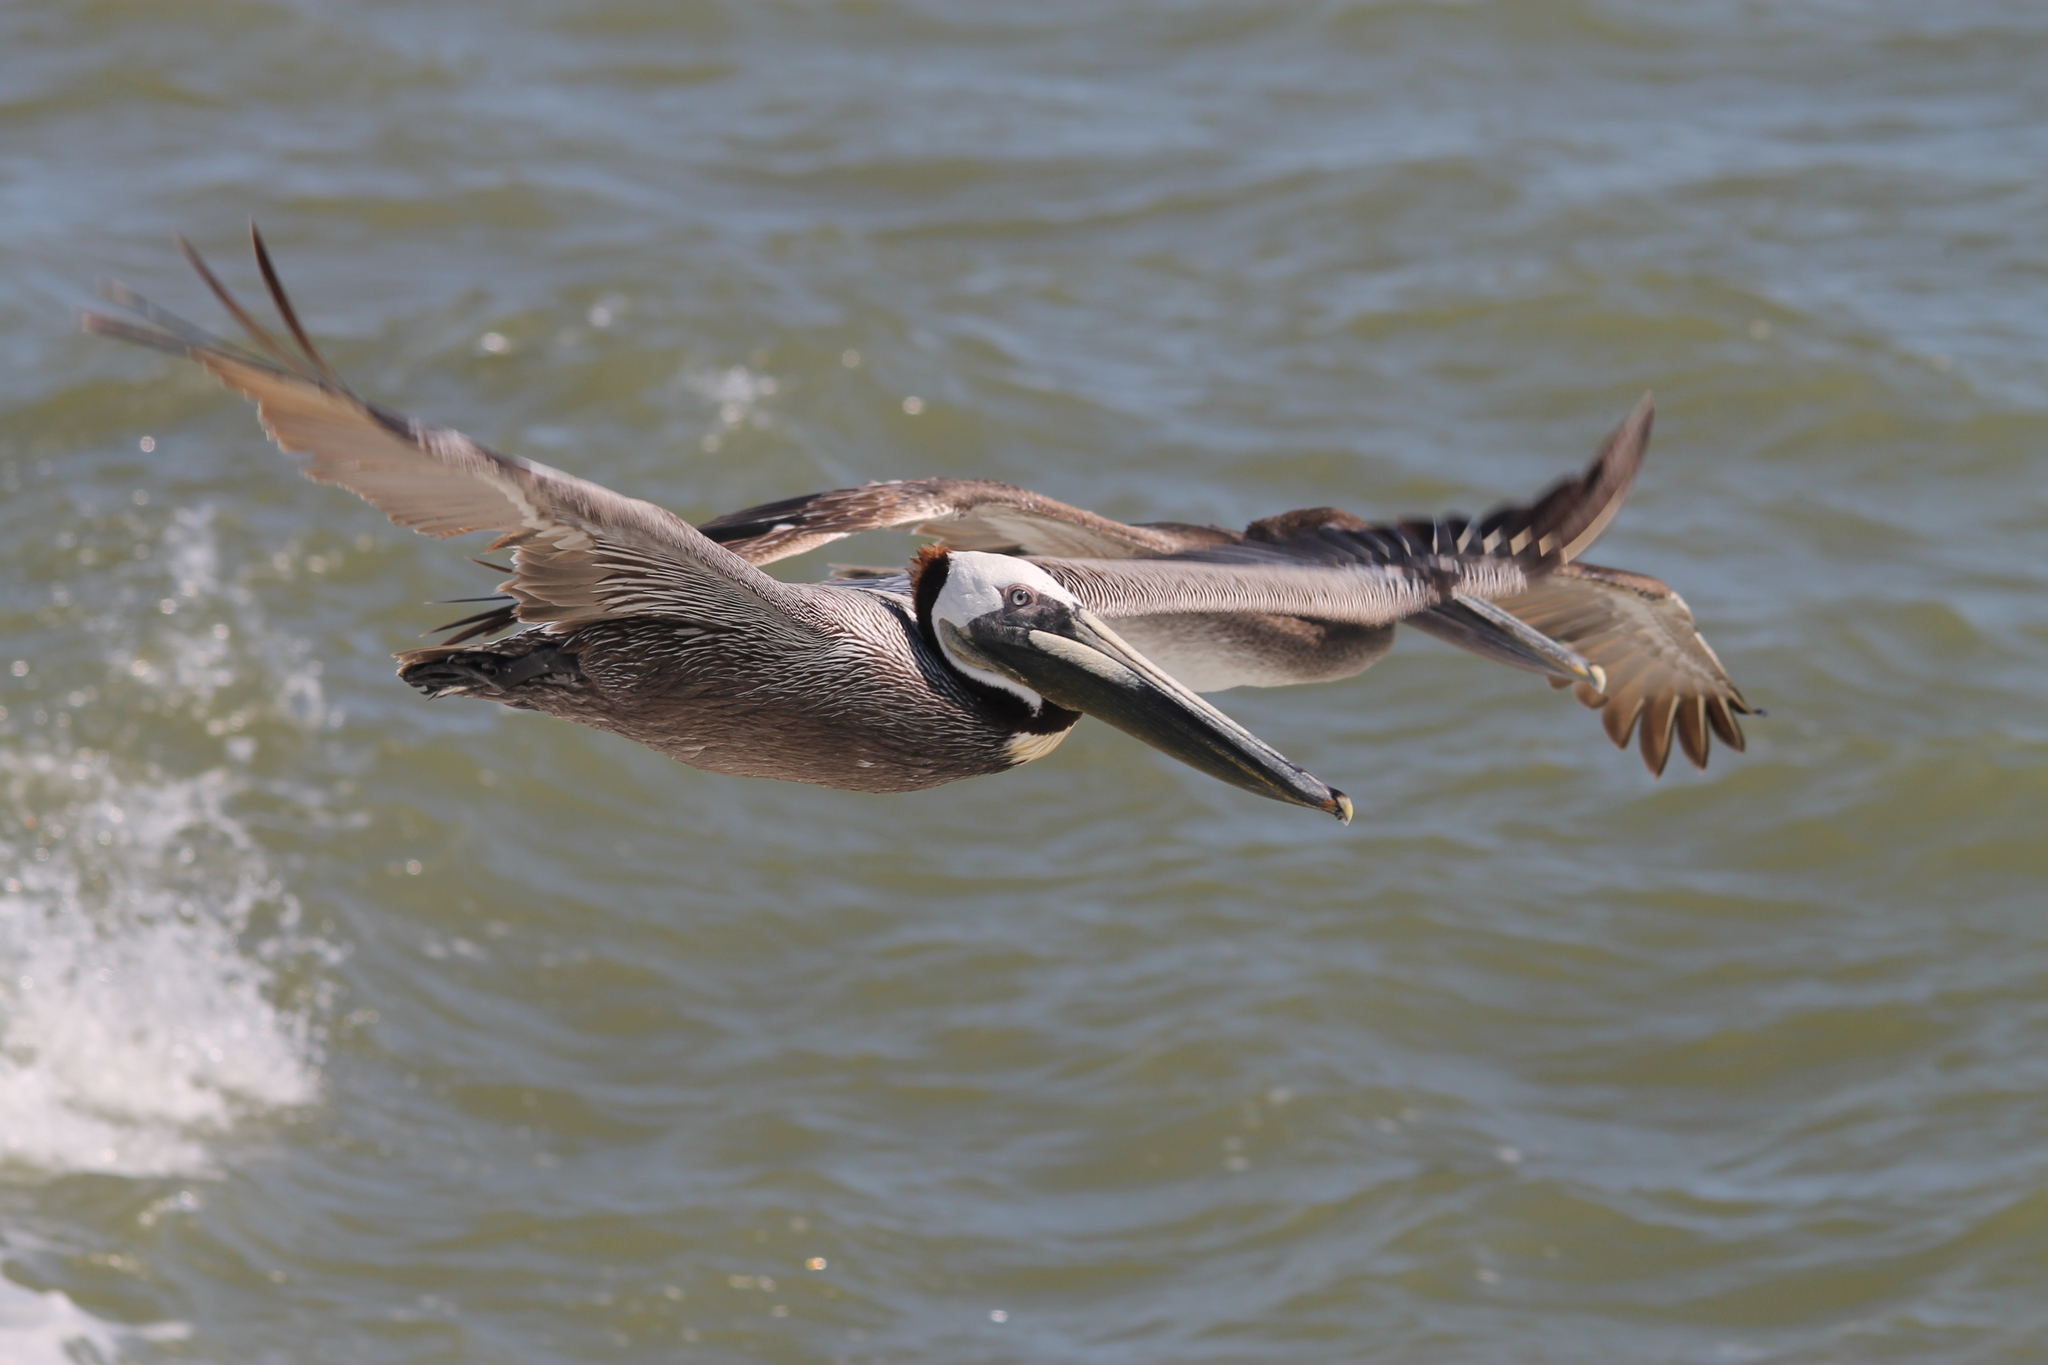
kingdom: Animalia
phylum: Chordata
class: Aves
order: Pelecaniformes
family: Pelecanidae
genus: Pelecanus
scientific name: Pelecanus occidentalis
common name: Brown pelican
